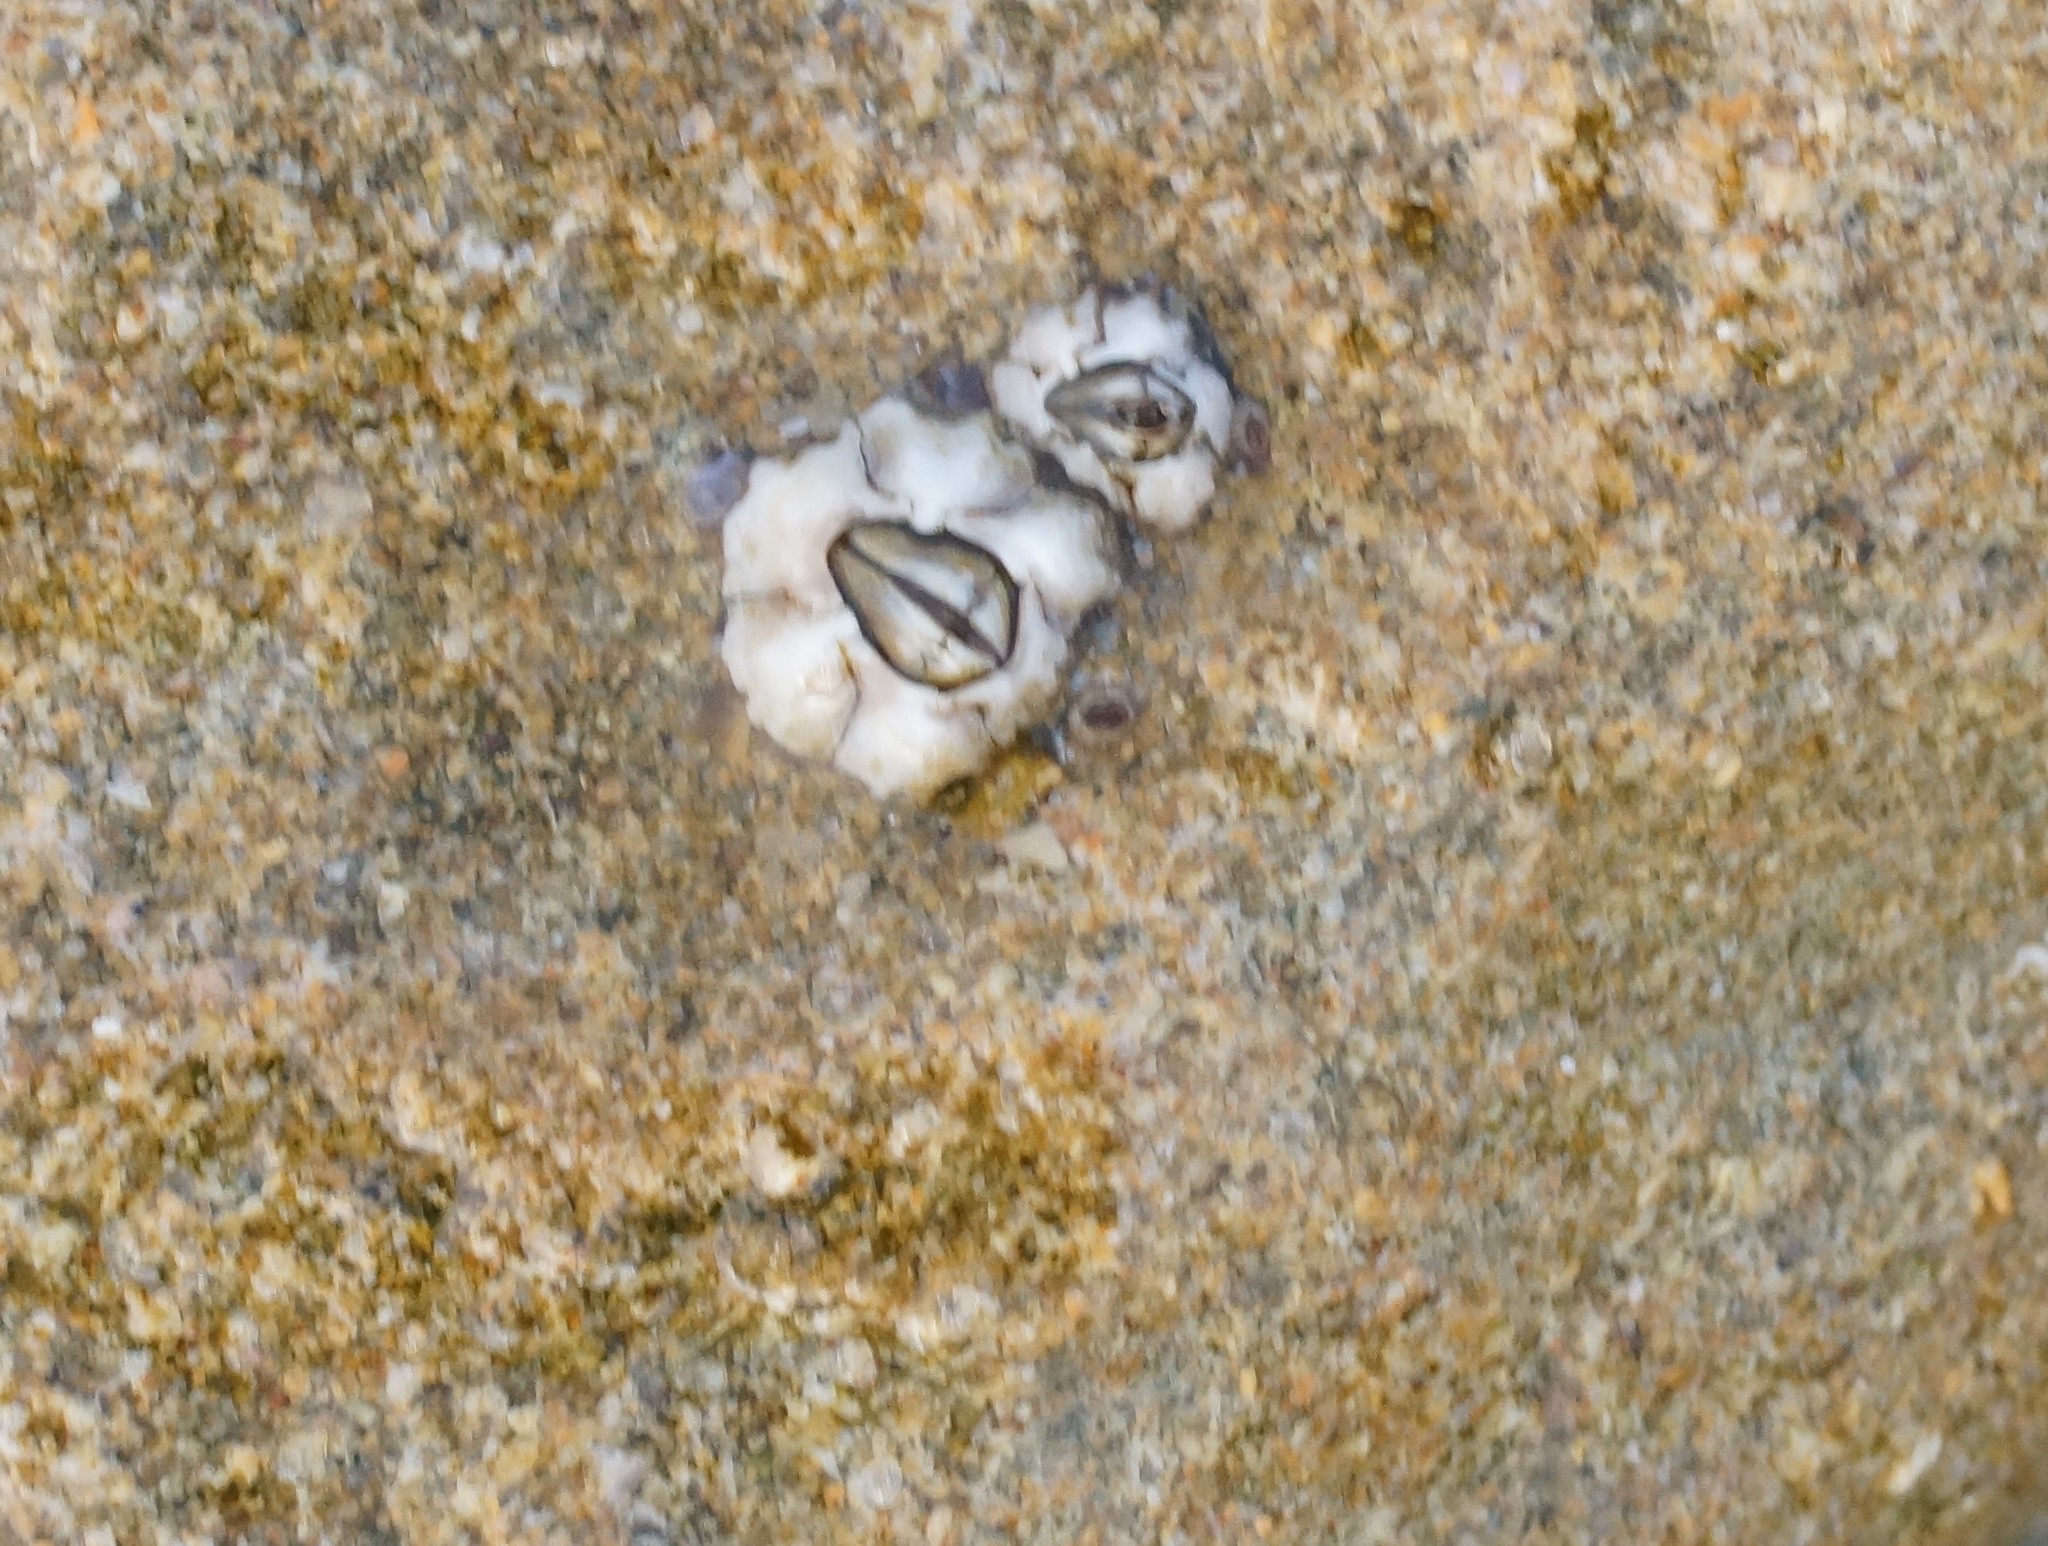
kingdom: Animalia
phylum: Arthropoda
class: Maxillopoda
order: Sessilia
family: Chthamalidae
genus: Chthamalus
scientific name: Chthamalus antennatus
